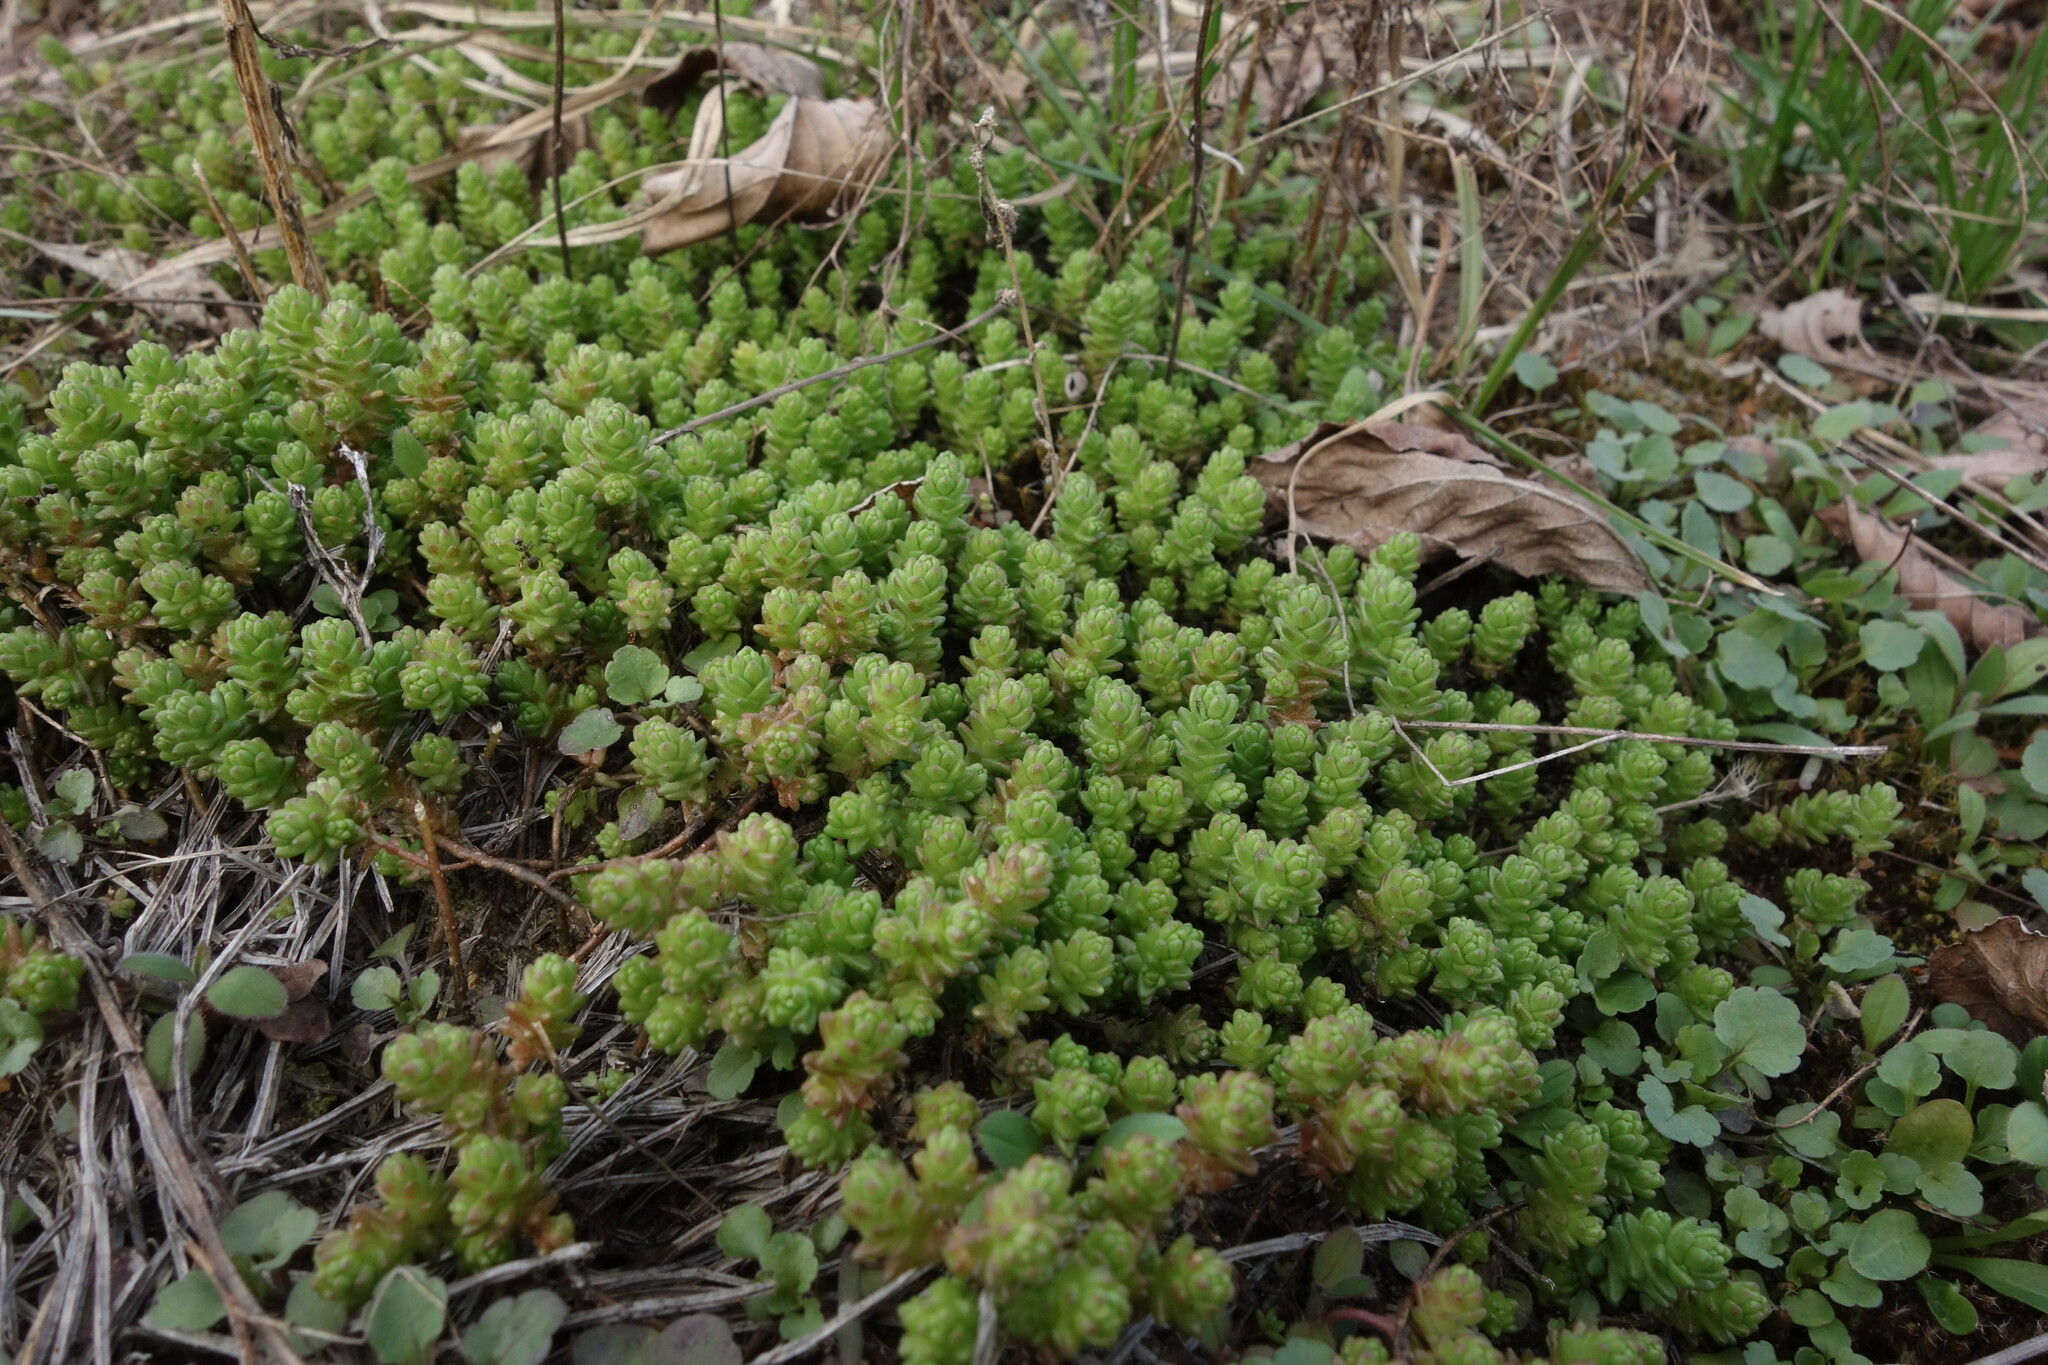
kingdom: Plantae
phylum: Tracheophyta
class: Magnoliopsida
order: Saxifragales
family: Crassulaceae
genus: Sedum
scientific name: Sedum acre
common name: Biting stonecrop
